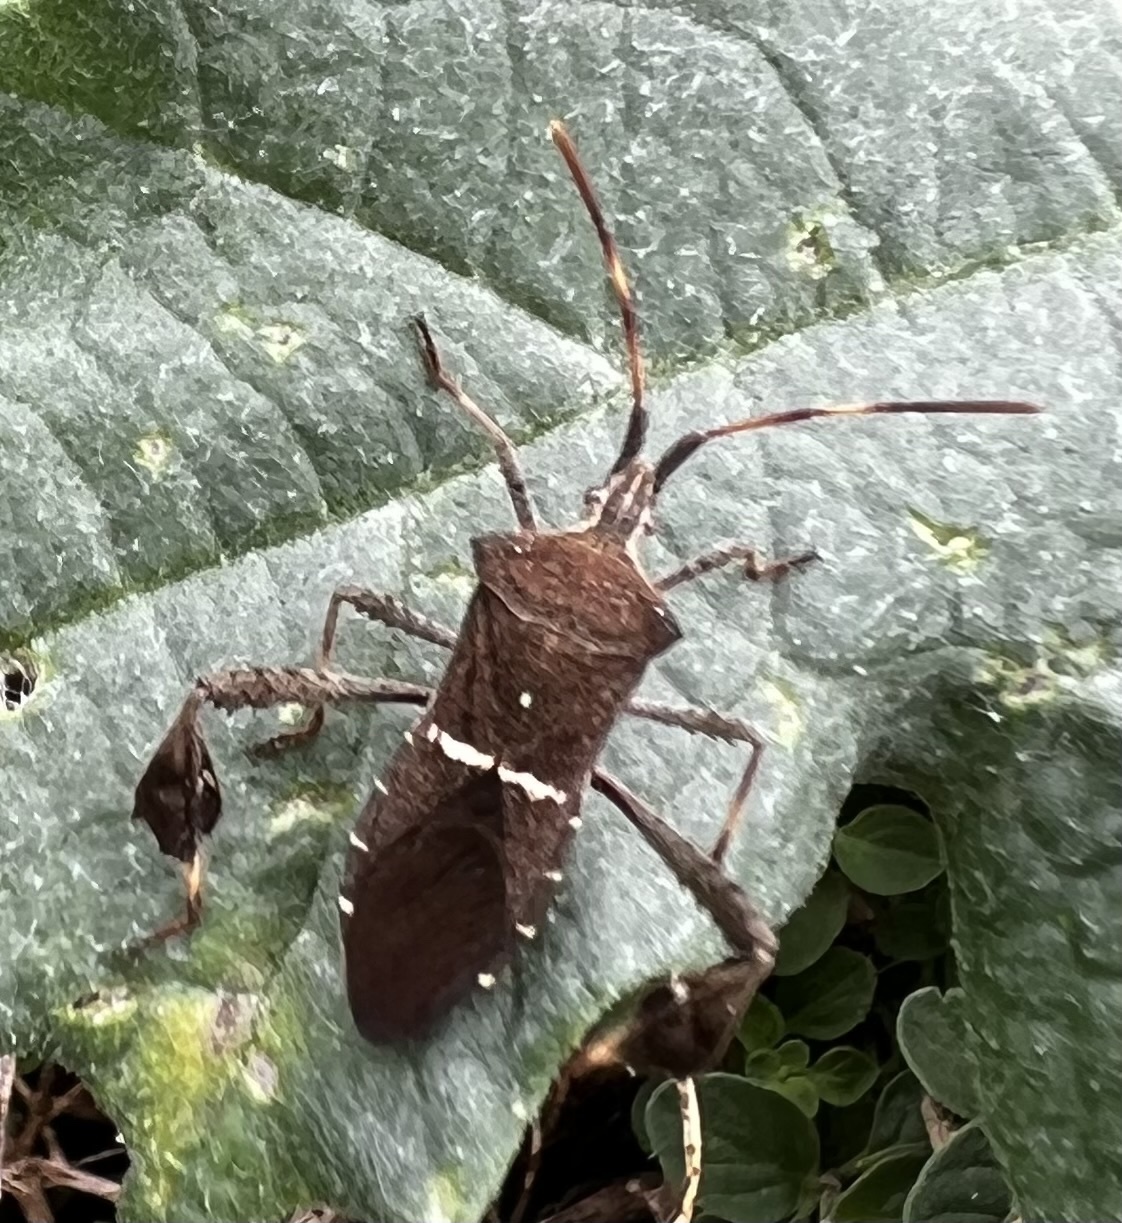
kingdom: Animalia
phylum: Arthropoda
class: Insecta
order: Hemiptera
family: Coreidae
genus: Leptoglossus
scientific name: Leptoglossus phyllopus
